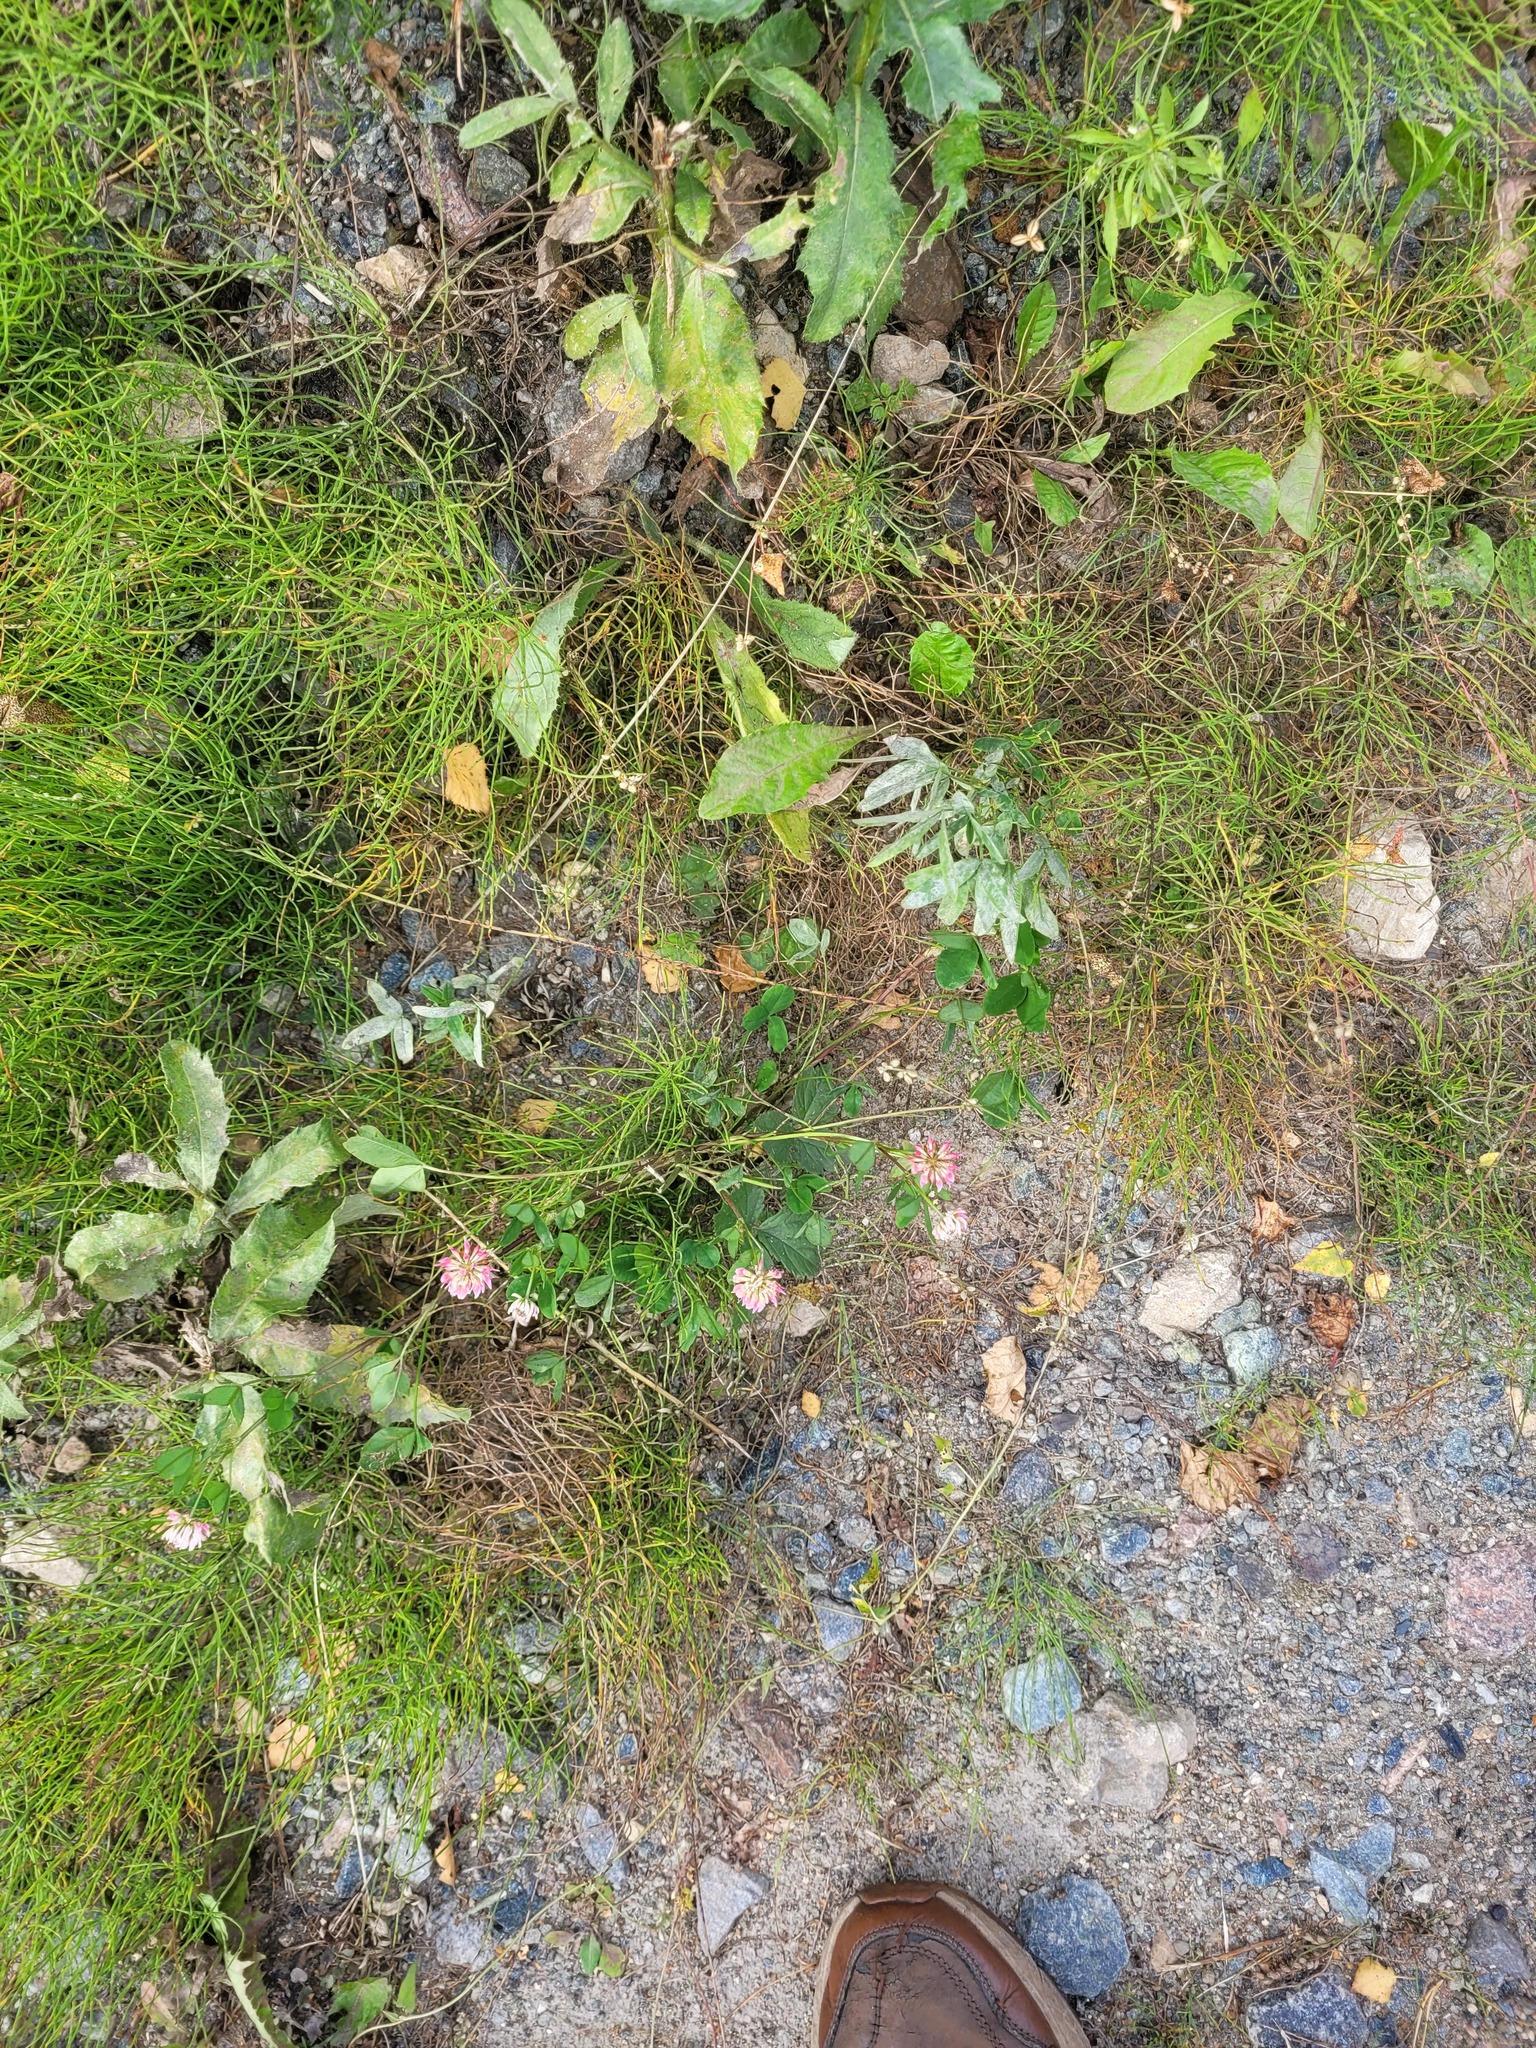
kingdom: Plantae
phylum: Tracheophyta
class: Magnoliopsida
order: Fabales
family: Fabaceae
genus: Trifolium
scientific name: Trifolium hybridum
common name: Alsike clover
